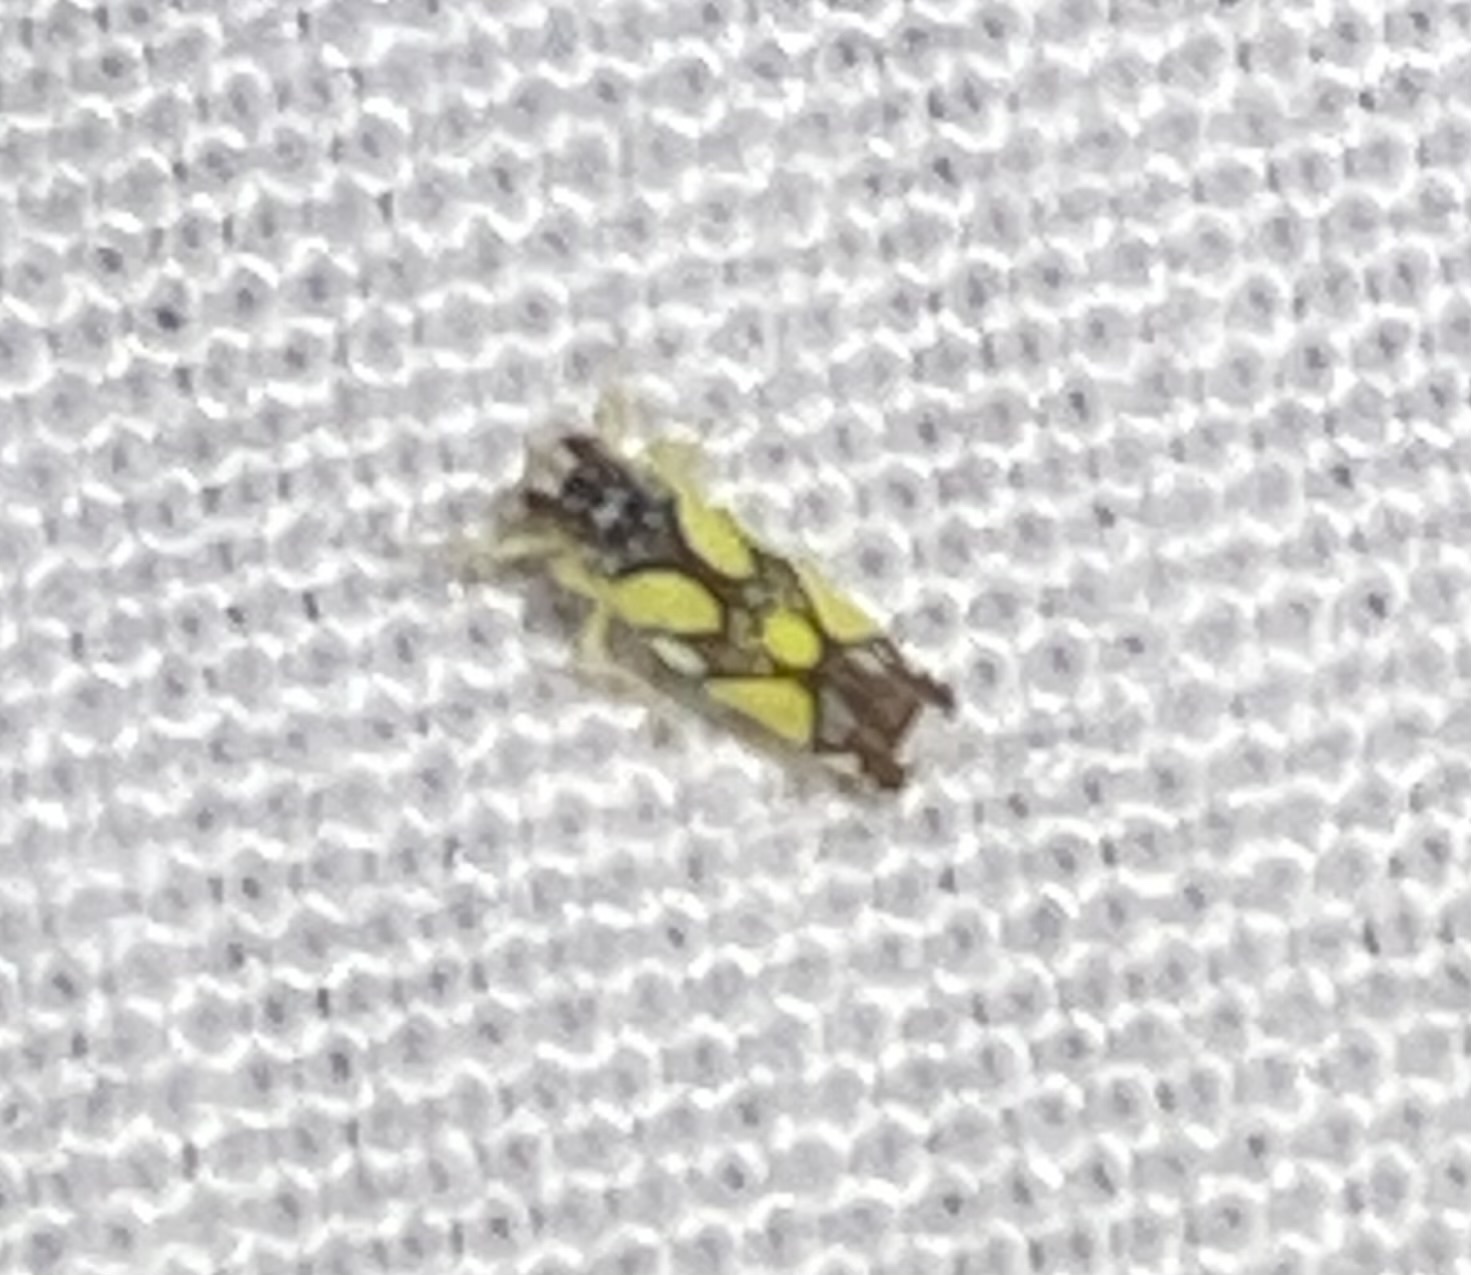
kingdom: Animalia
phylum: Arthropoda
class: Insecta
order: Hemiptera
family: Cicadellidae
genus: Protalebrella
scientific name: Protalebrella brasiliensis
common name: Brasilian leafhopper
